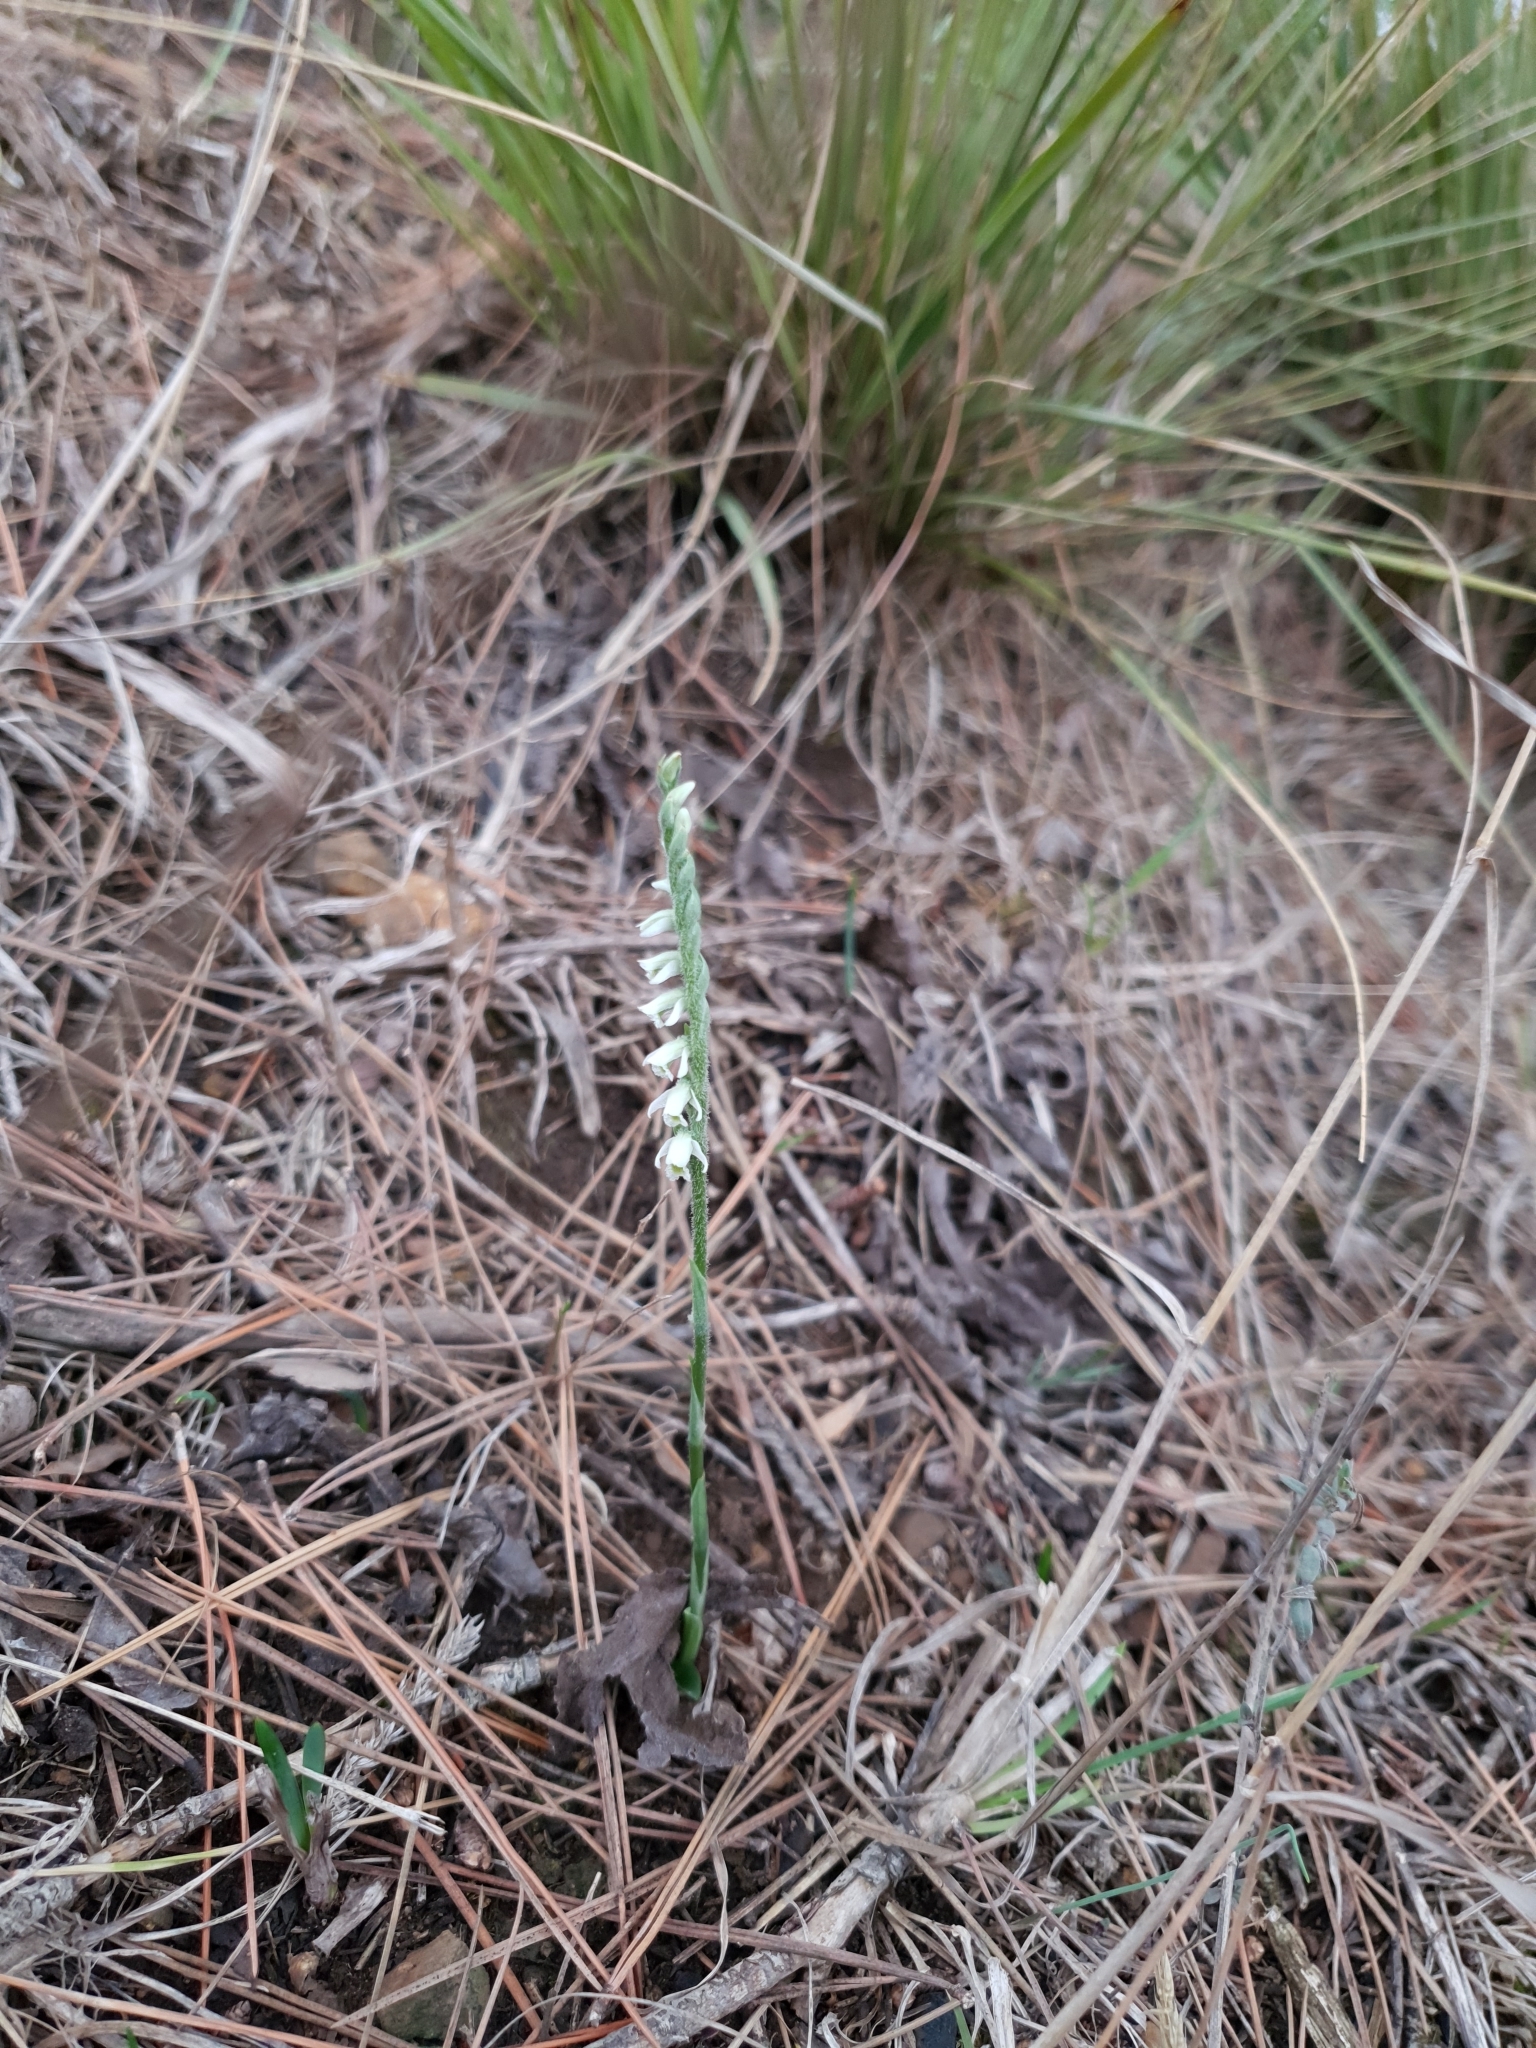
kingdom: Plantae
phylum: Tracheophyta
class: Liliopsida
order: Asparagales
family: Orchidaceae
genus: Spiranthes
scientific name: Spiranthes spiralis
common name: Autumn lady's-tresses
